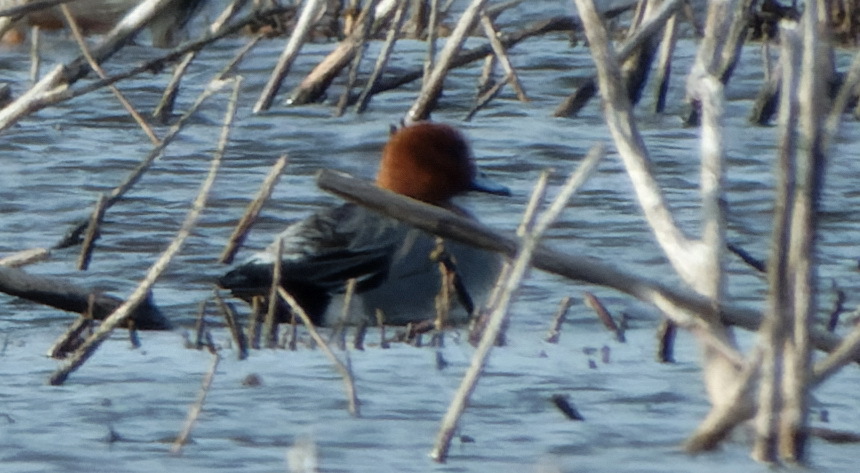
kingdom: Animalia
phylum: Chordata
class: Aves
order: Anseriformes
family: Anatidae
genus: Mareca
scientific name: Mareca penelope
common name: Eurasian wigeon
